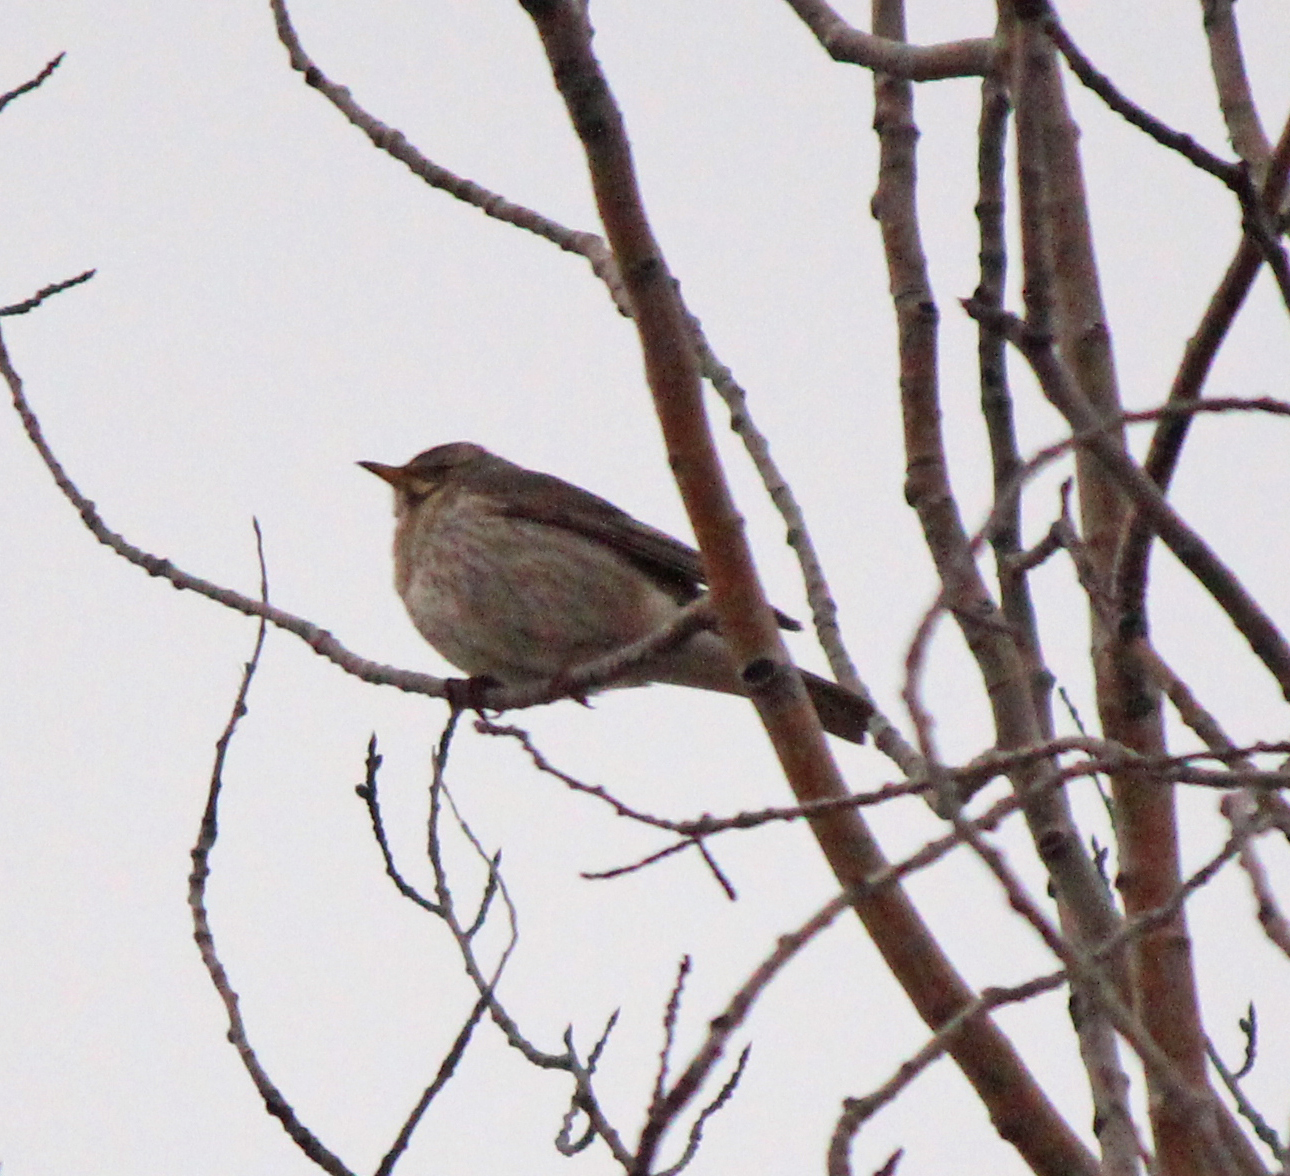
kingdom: Animalia
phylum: Chordata
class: Aves
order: Passeriformes
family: Turdidae
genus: Turdus
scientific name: Turdus ruficollis
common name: Red-throated thrush
